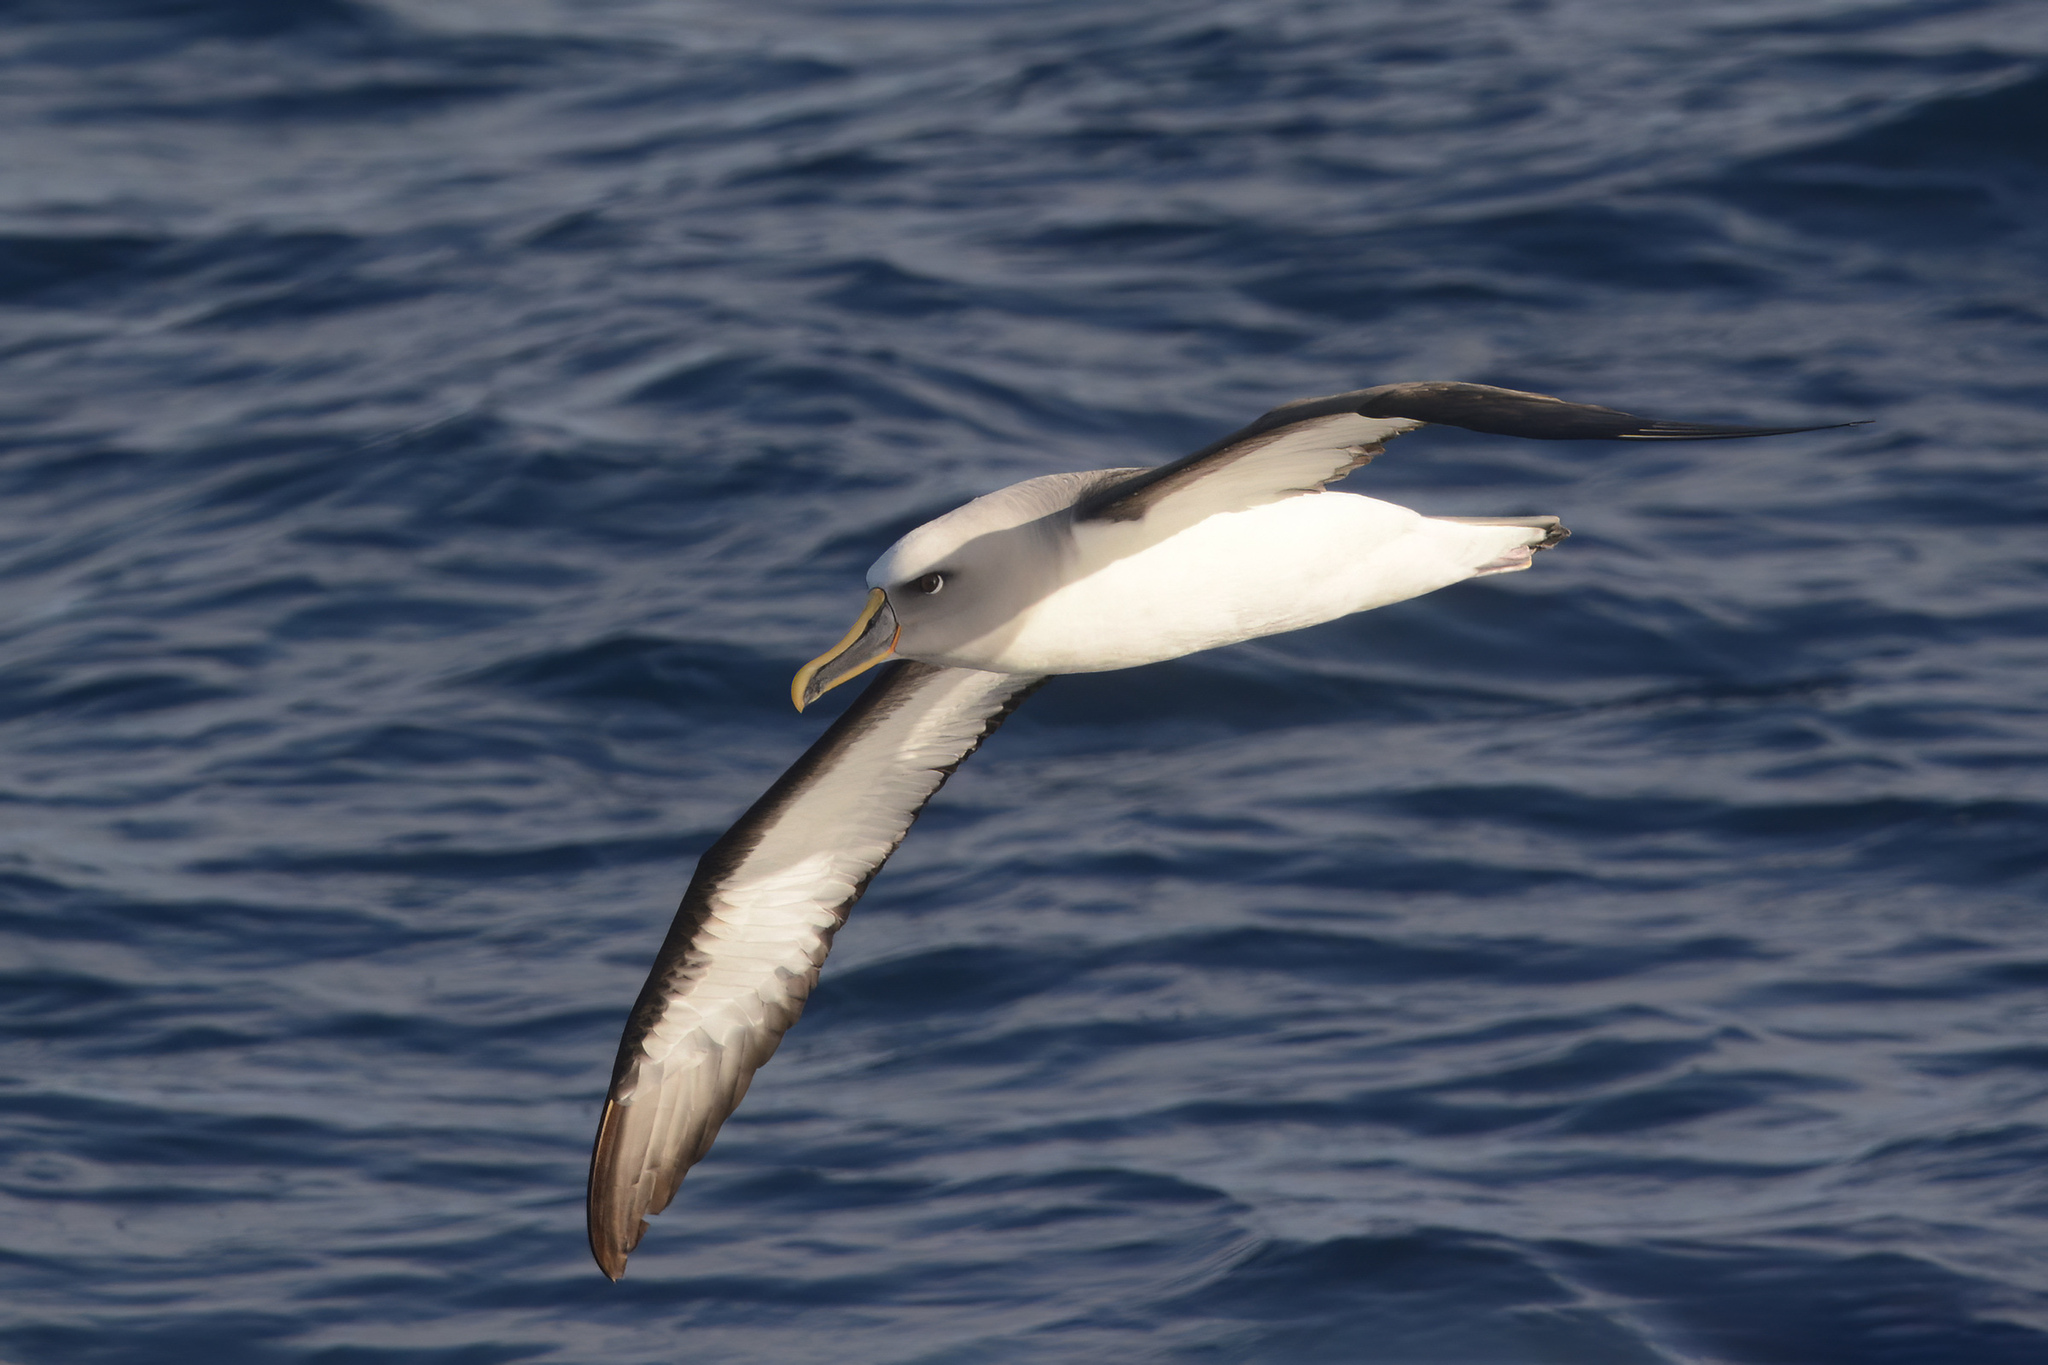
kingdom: Animalia
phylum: Chordata
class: Aves
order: Procellariiformes
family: Diomedeidae
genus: Thalassarche
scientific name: Thalassarche bulleri
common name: Buller's albatross
